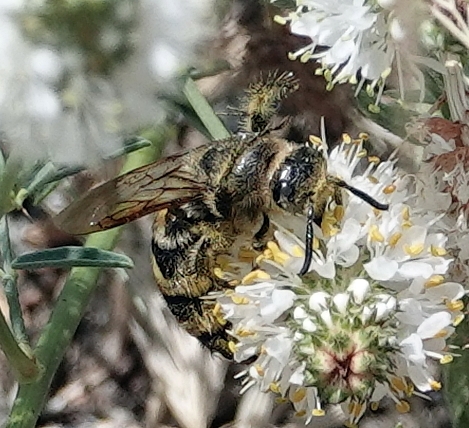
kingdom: Animalia
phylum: Arthropoda
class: Insecta
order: Hymenoptera
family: Scoliidae
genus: Dielis
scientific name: Dielis
